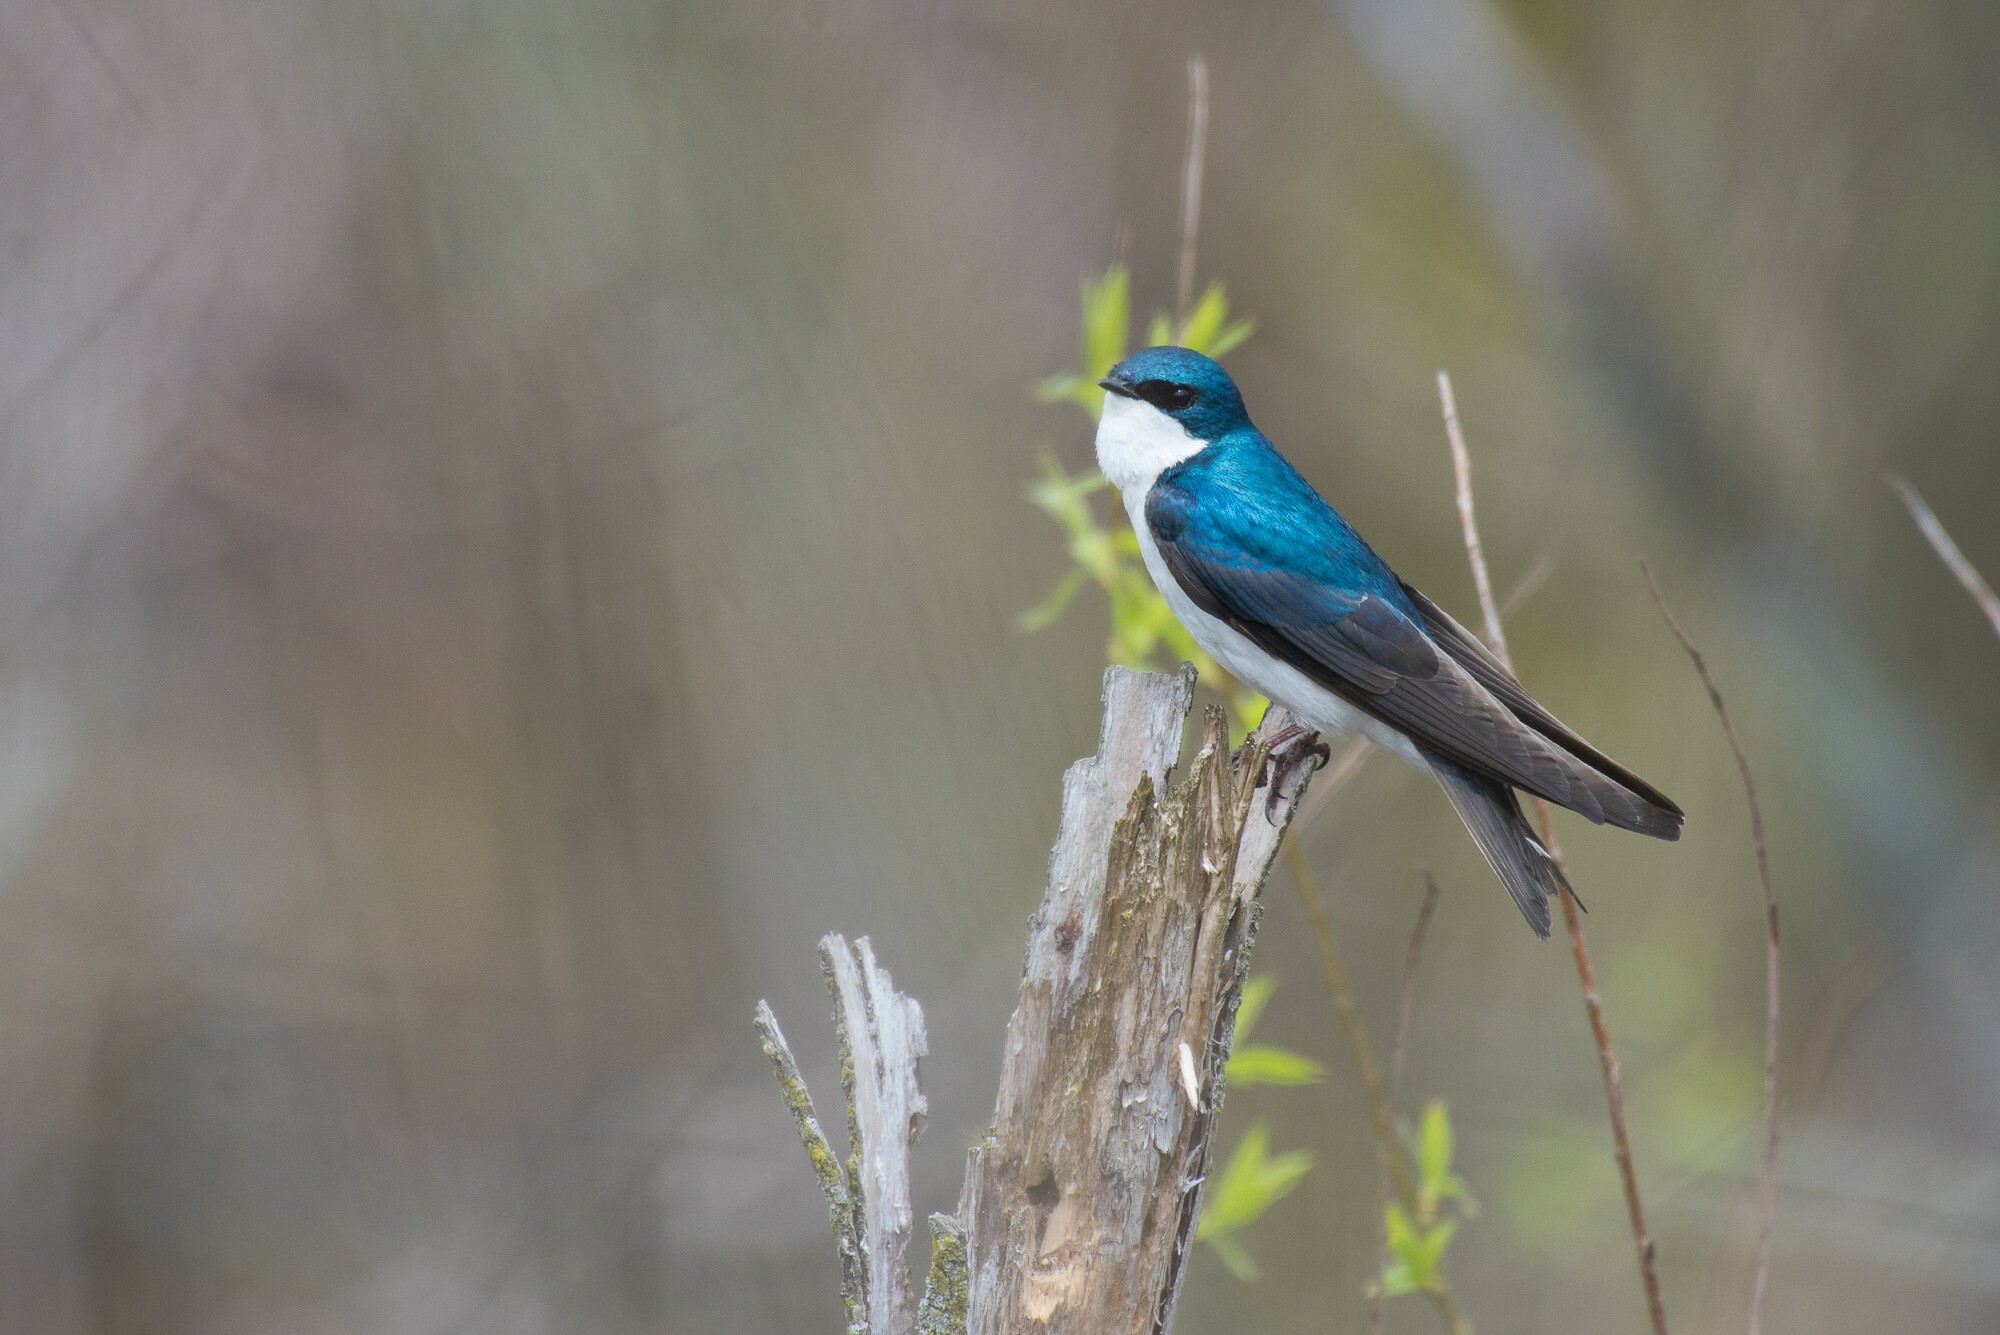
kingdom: Animalia
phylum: Chordata
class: Aves
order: Passeriformes
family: Hirundinidae
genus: Tachycineta
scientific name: Tachycineta bicolor
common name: Tree swallow
